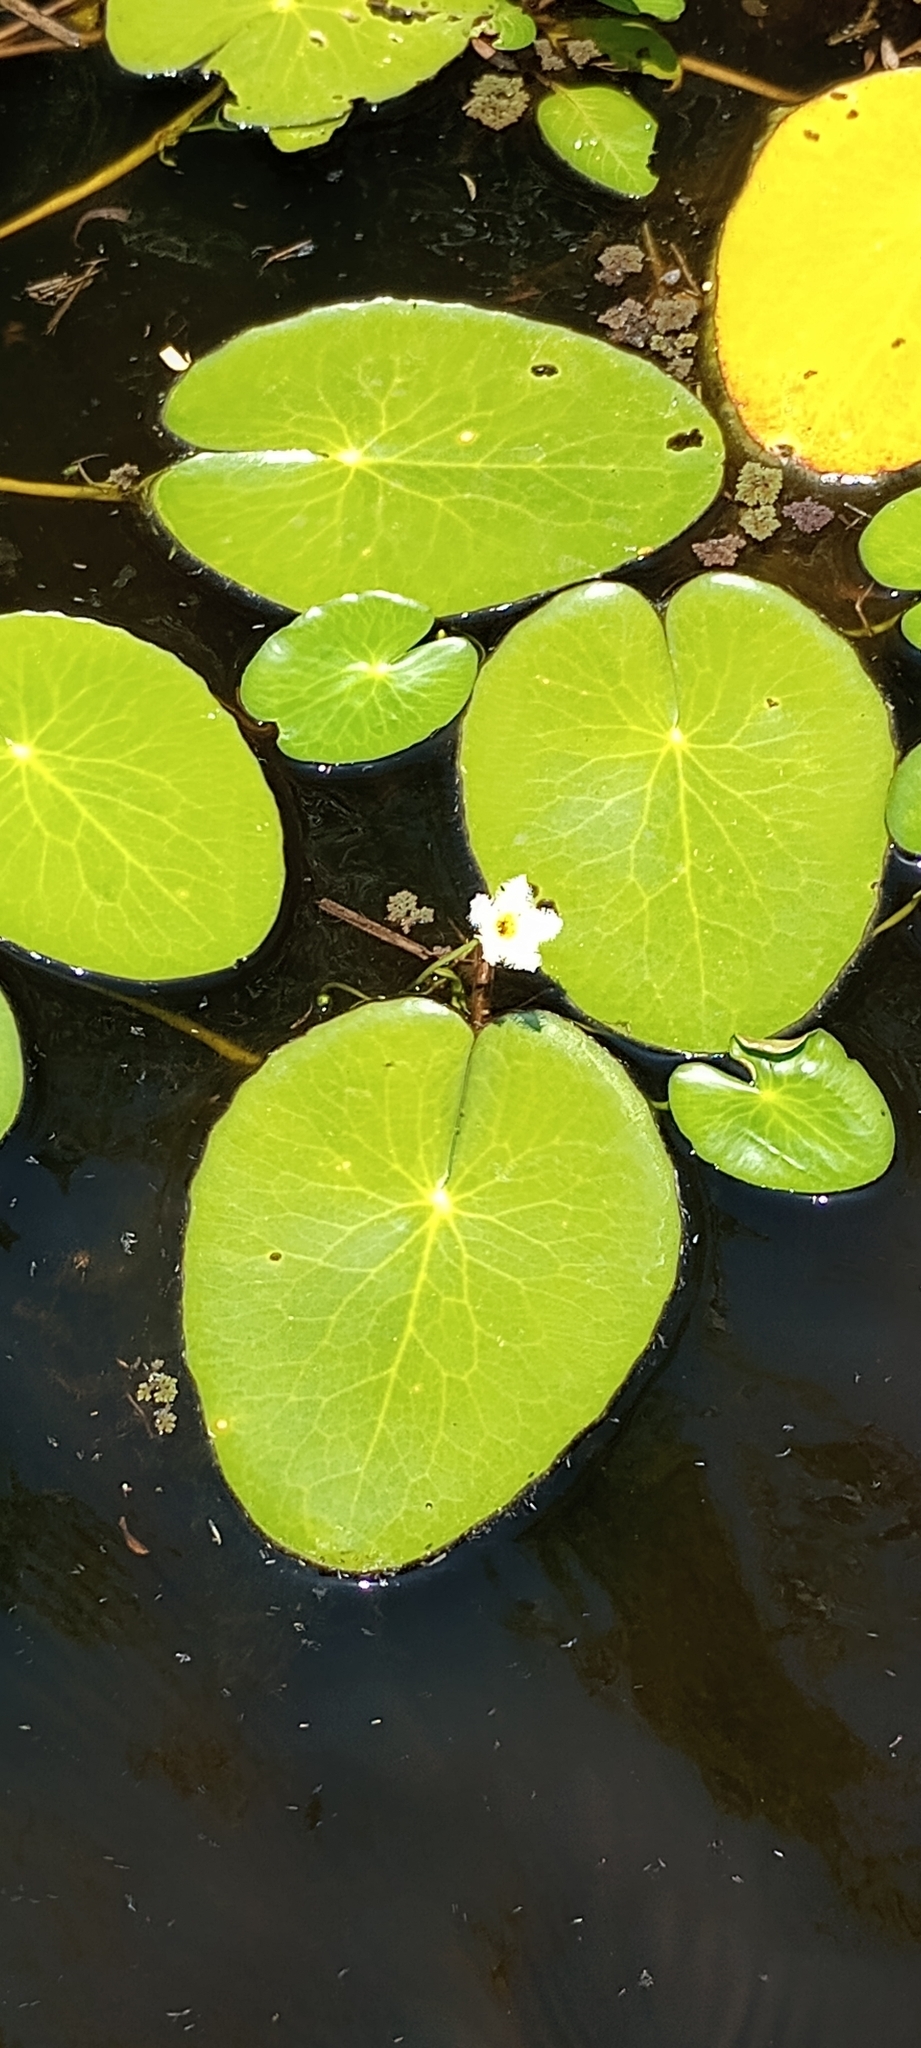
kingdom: Plantae
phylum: Tracheophyta
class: Magnoliopsida
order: Asterales
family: Menyanthaceae
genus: Nymphoides
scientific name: Nymphoides humboldtiana
